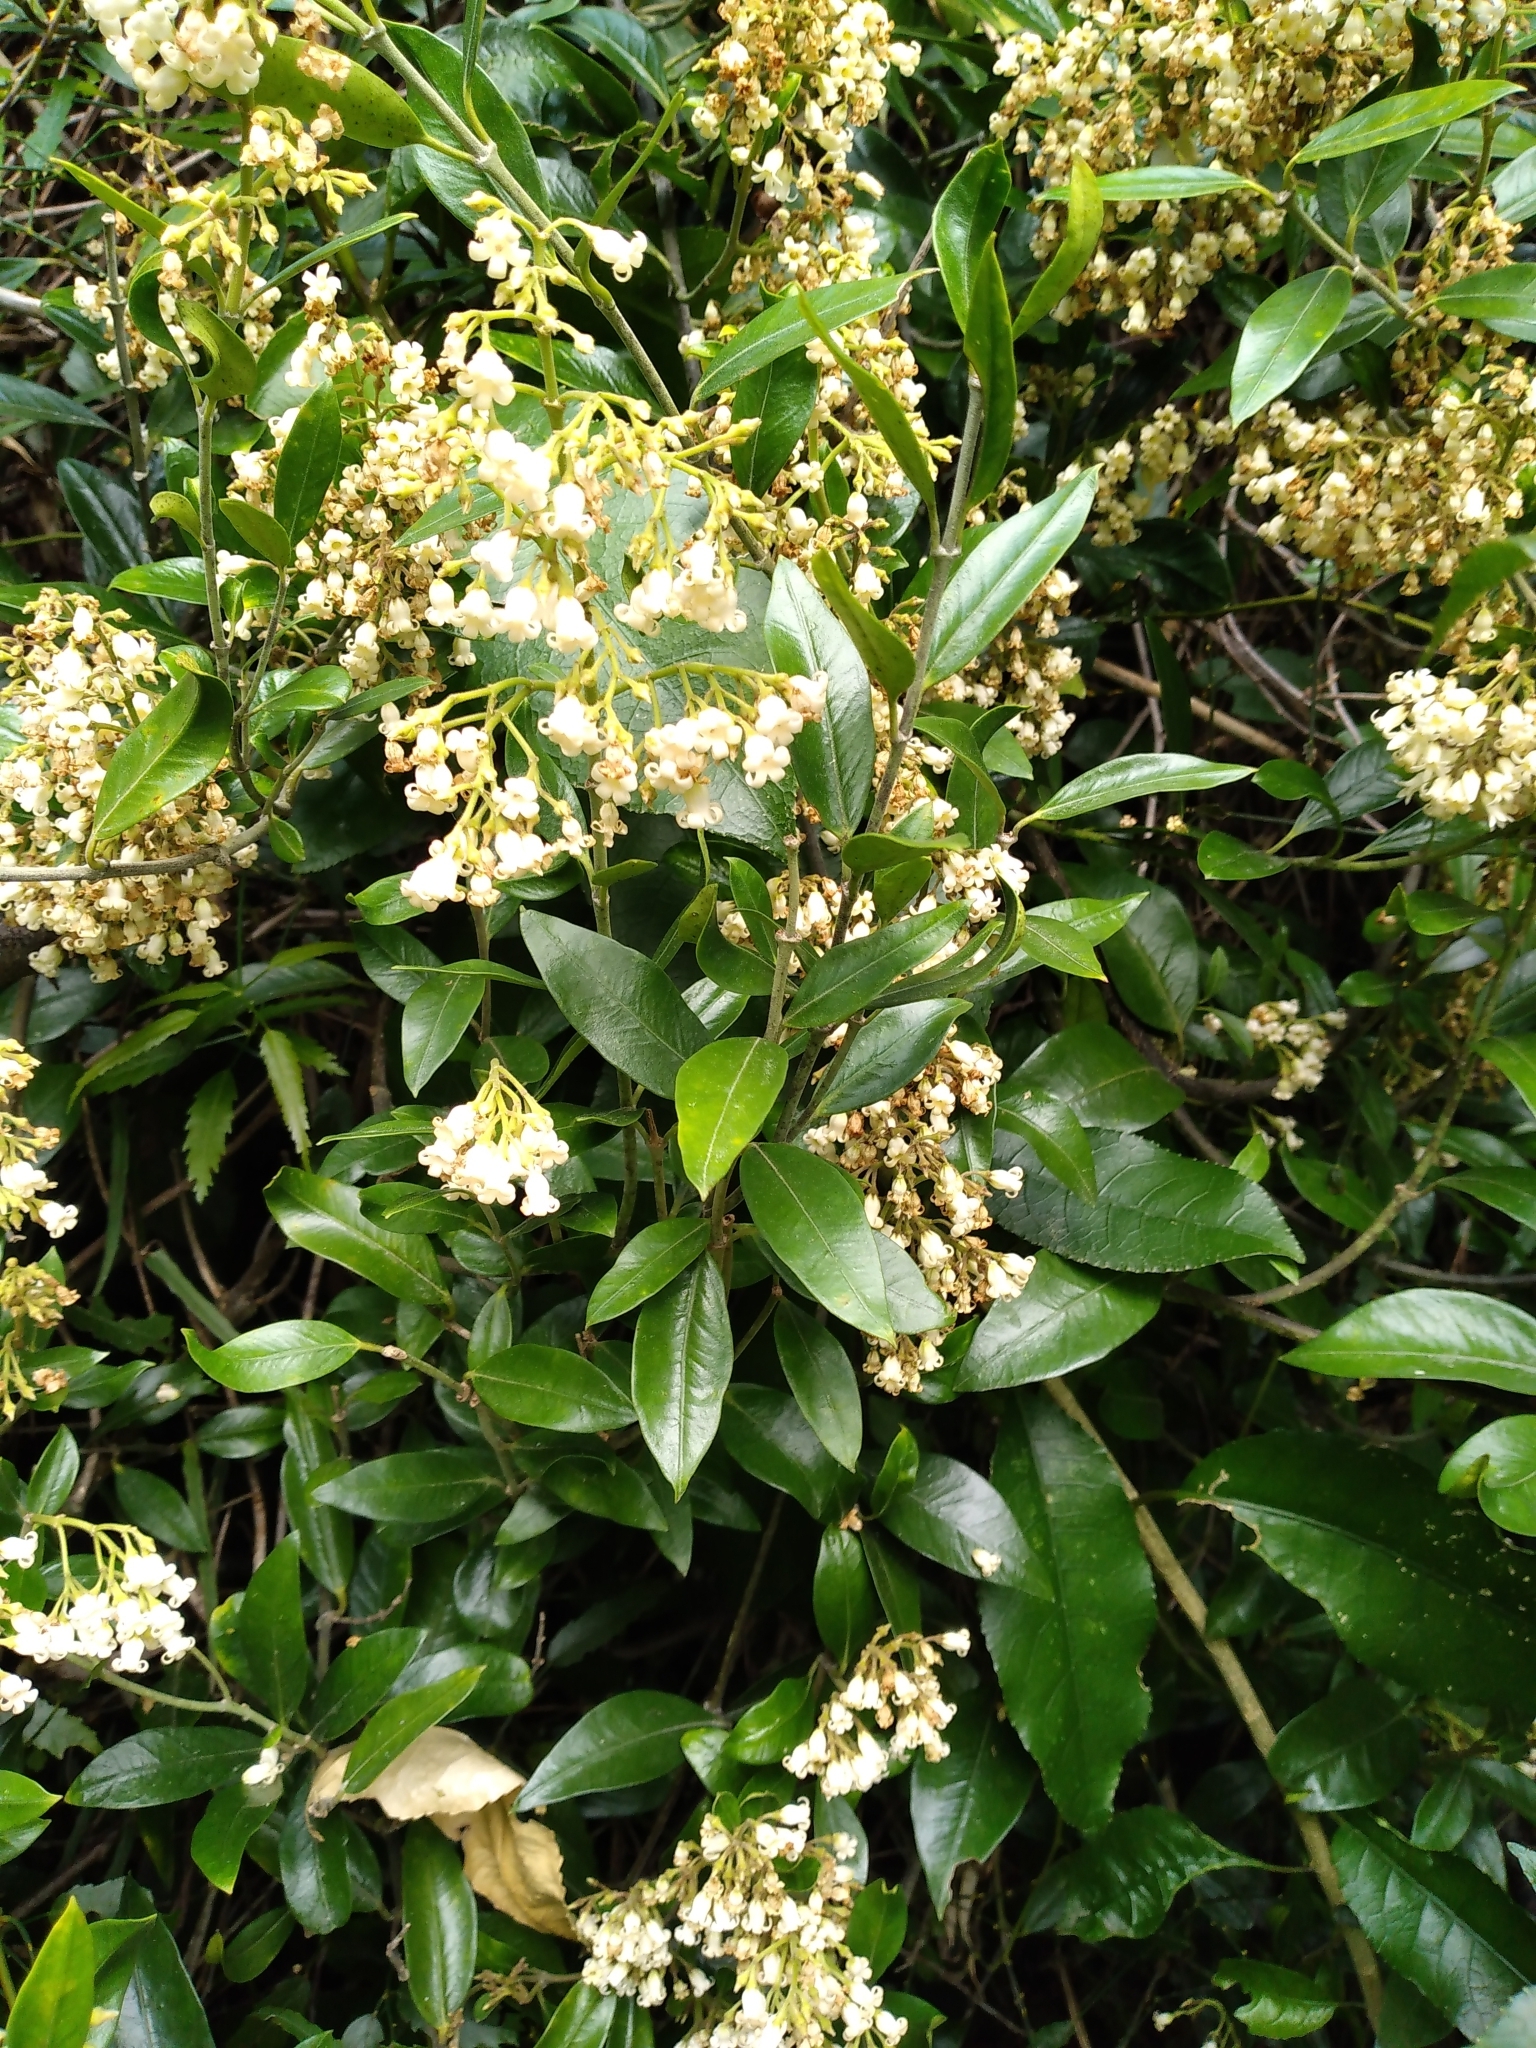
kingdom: Plantae
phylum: Tracheophyta
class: Magnoliopsida
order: Gentianales
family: Apocynaceae
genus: Parsonsia
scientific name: Parsonsia heterophylla
